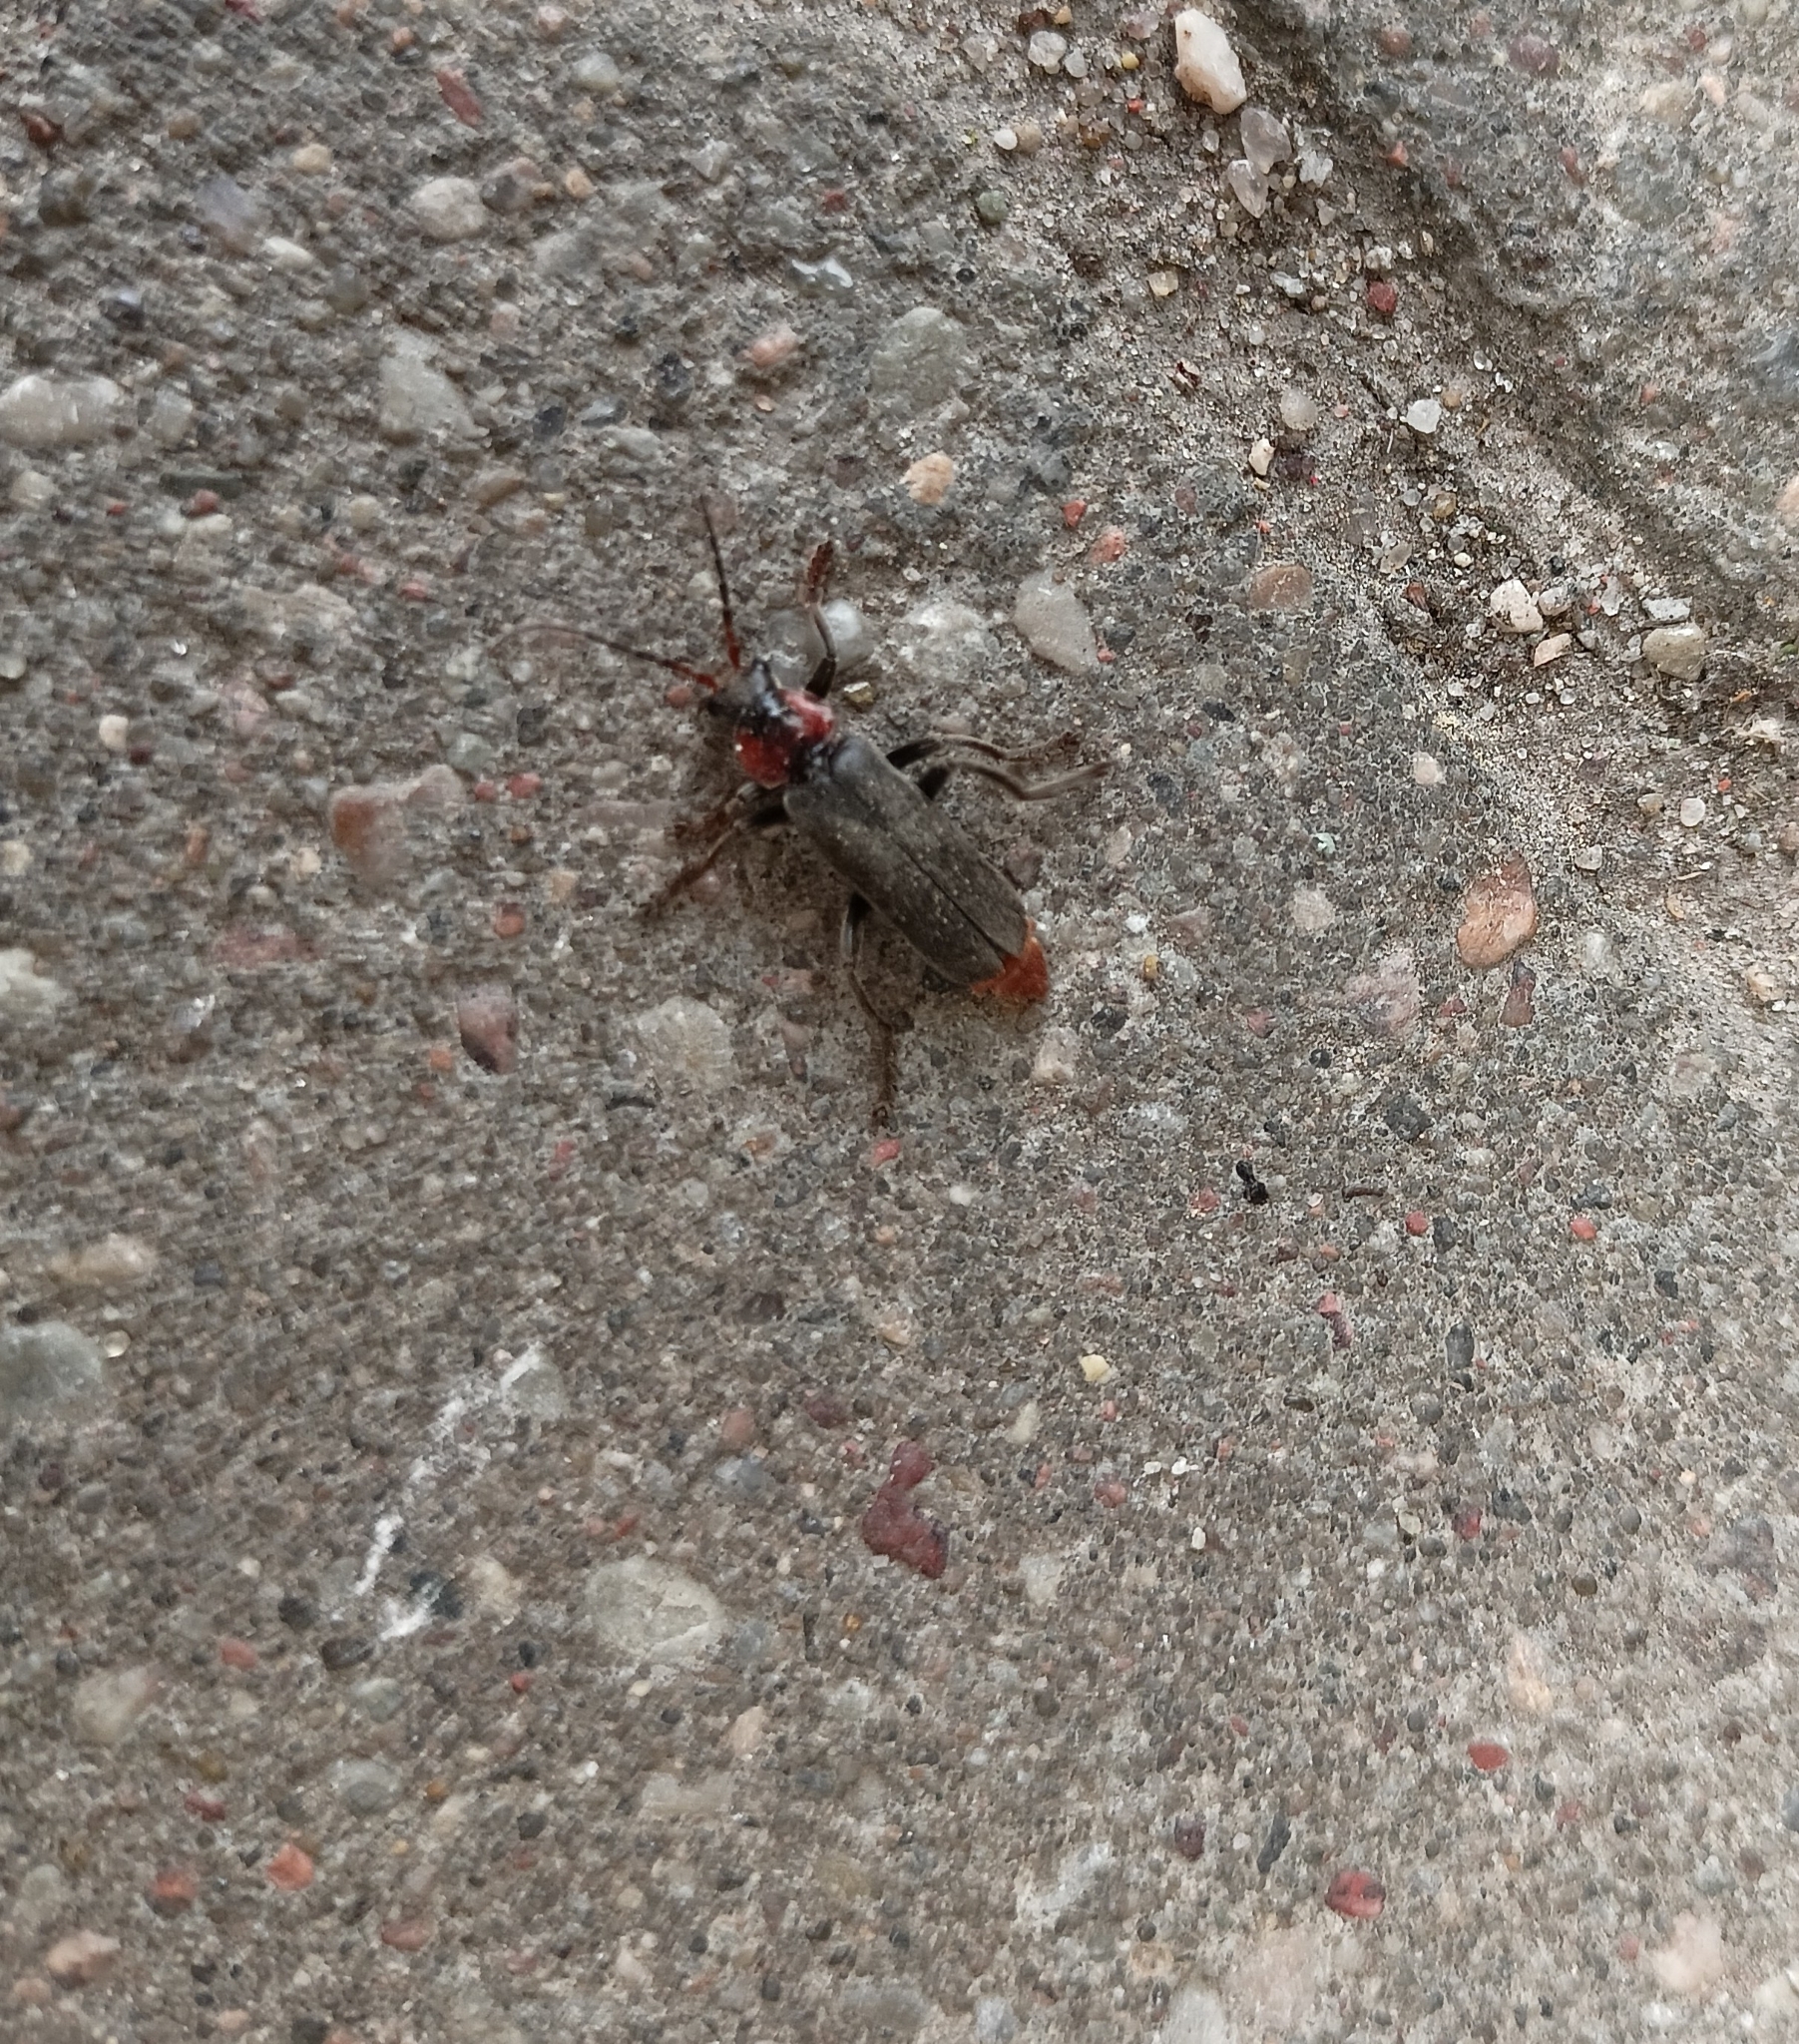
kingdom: Animalia
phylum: Arthropoda
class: Insecta
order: Coleoptera
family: Cantharidae
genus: Cantharis
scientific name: Cantharis fusca
